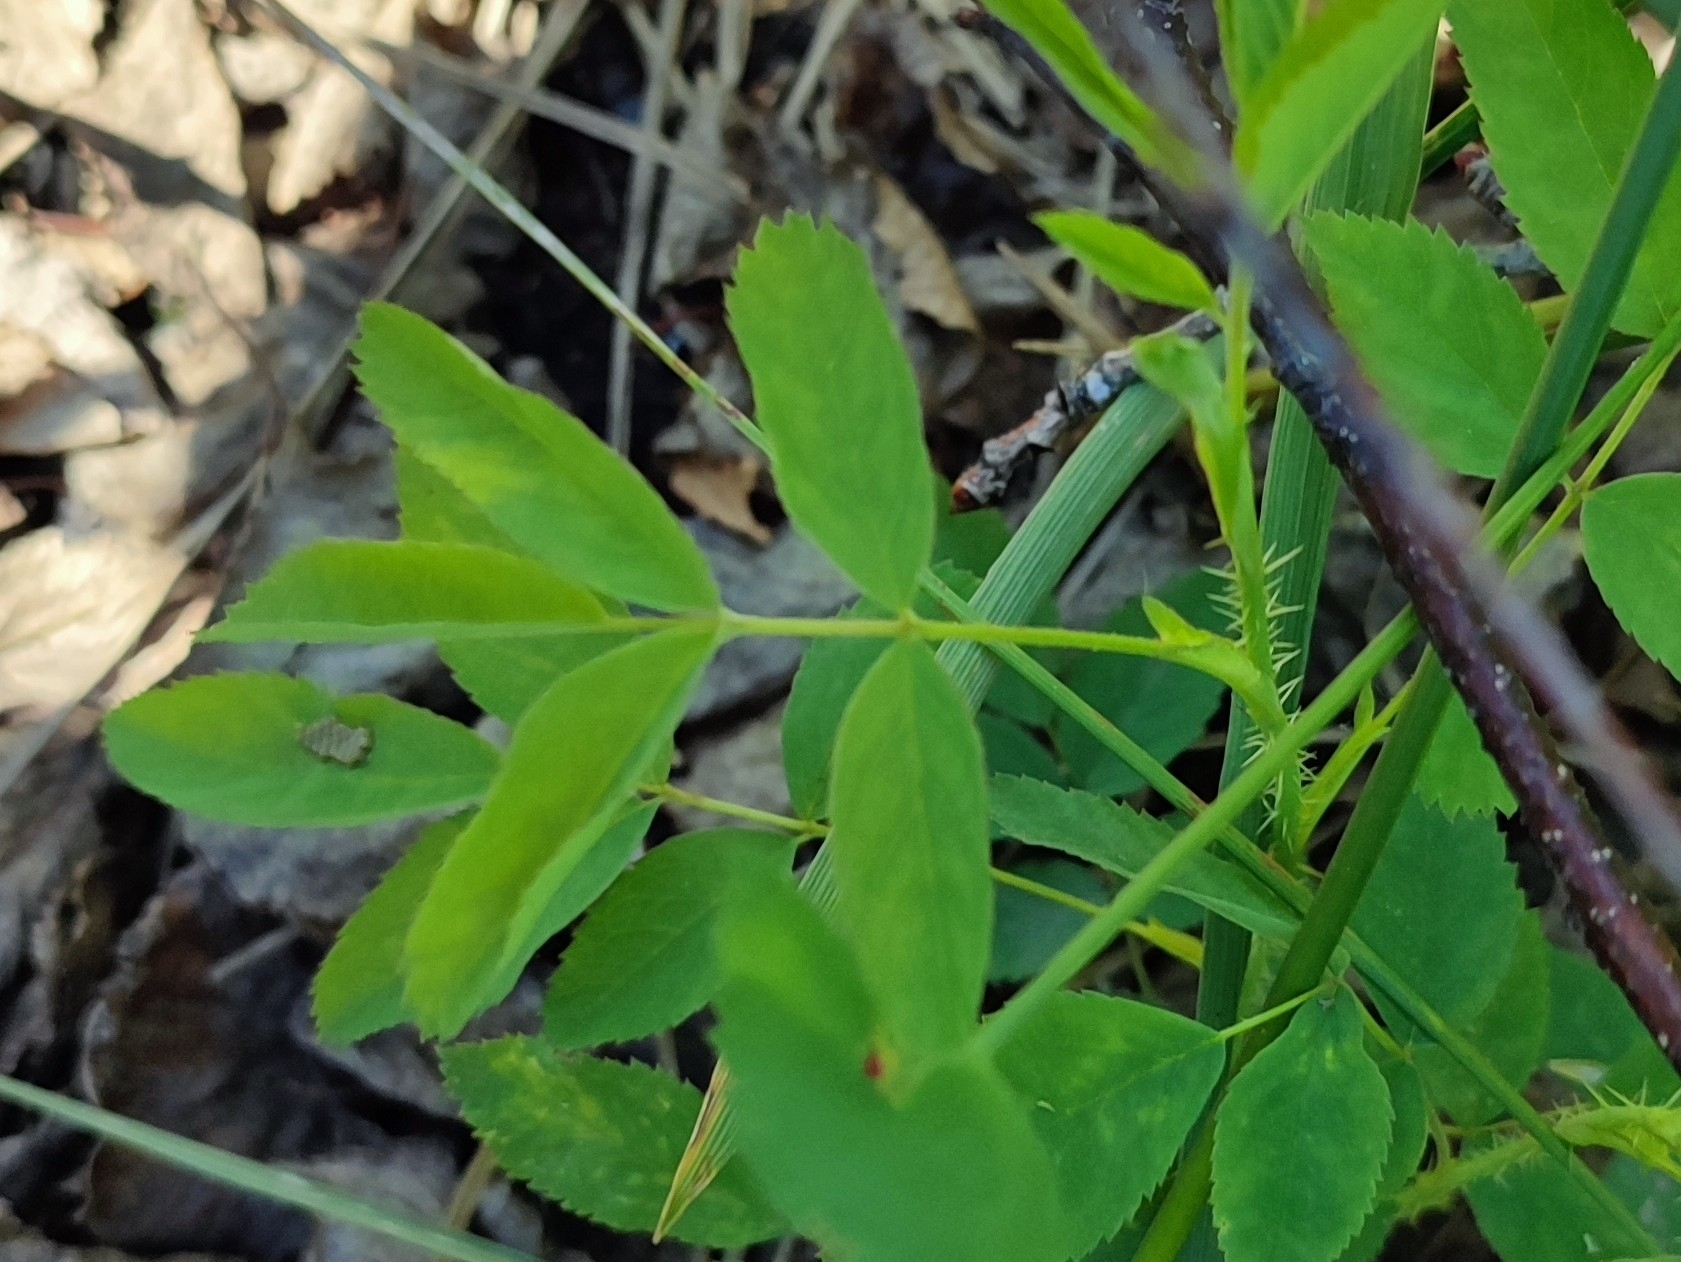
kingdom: Plantae
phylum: Tracheophyta
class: Magnoliopsida
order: Rosales
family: Rosaceae
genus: Rosa
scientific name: Rosa majalis
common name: Cinnamon rose
